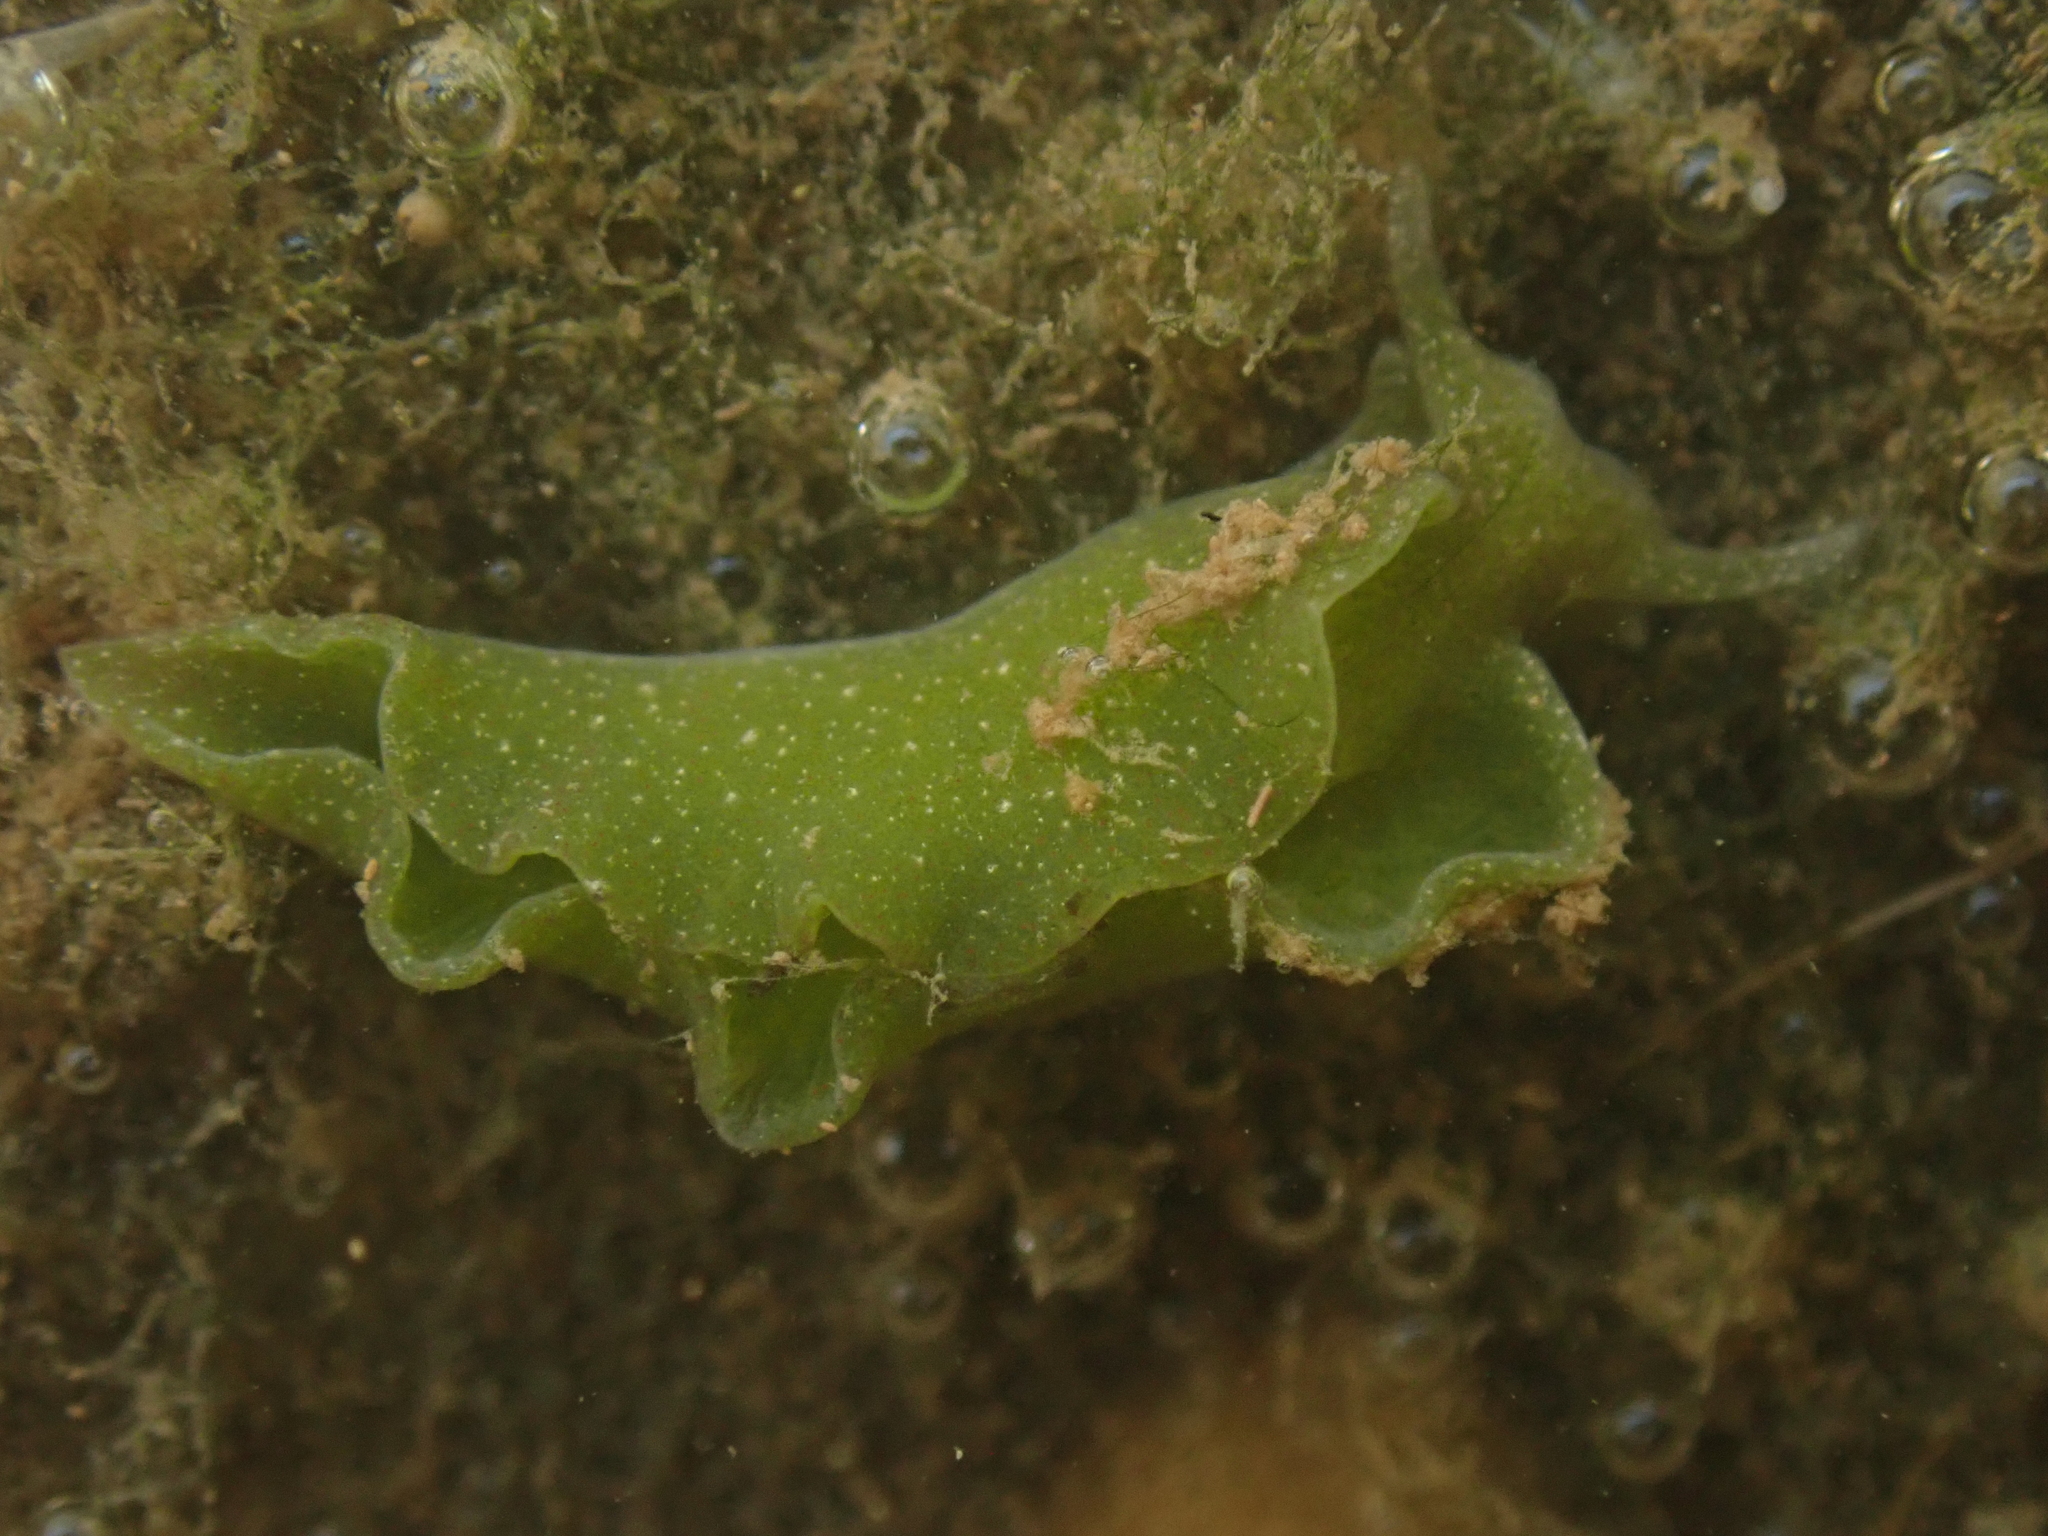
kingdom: Animalia
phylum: Mollusca
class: Gastropoda
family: Plakobranchidae
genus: Elysia
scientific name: Elysia chlorotica
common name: Eastern emerald elysia
